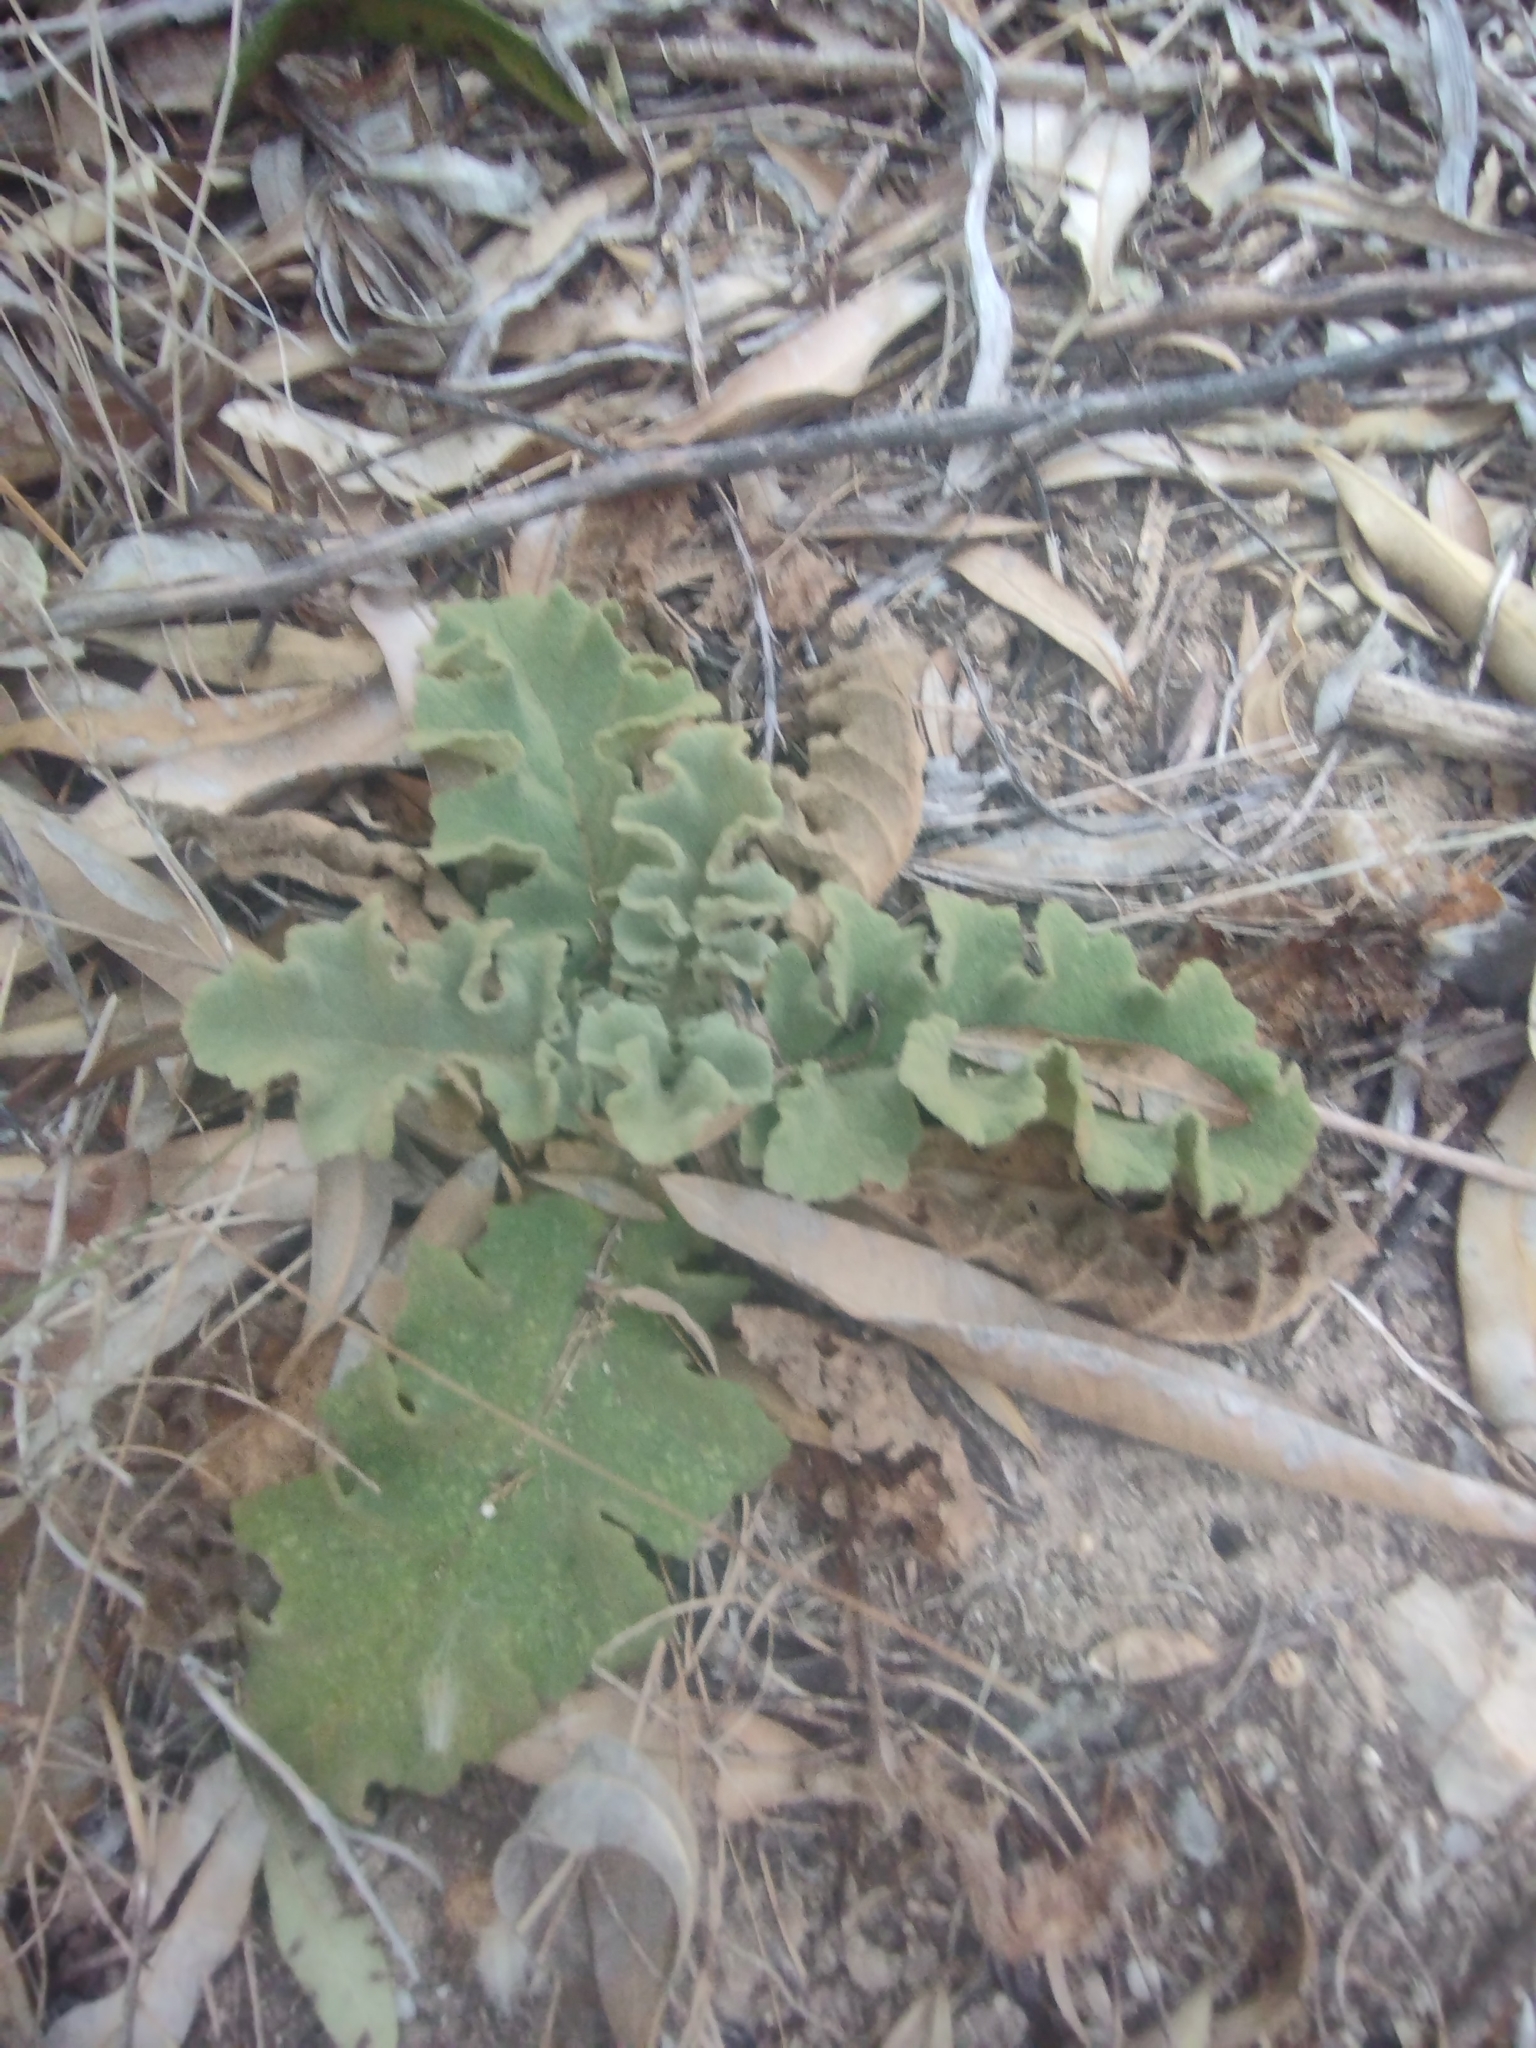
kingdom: Plantae
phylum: Tracheophyta
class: Magnoliopsida
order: Lamiales
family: Scrophulariaceae
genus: Verbascum
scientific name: Verbascum sinuatum
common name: Wavyleaf mullein
